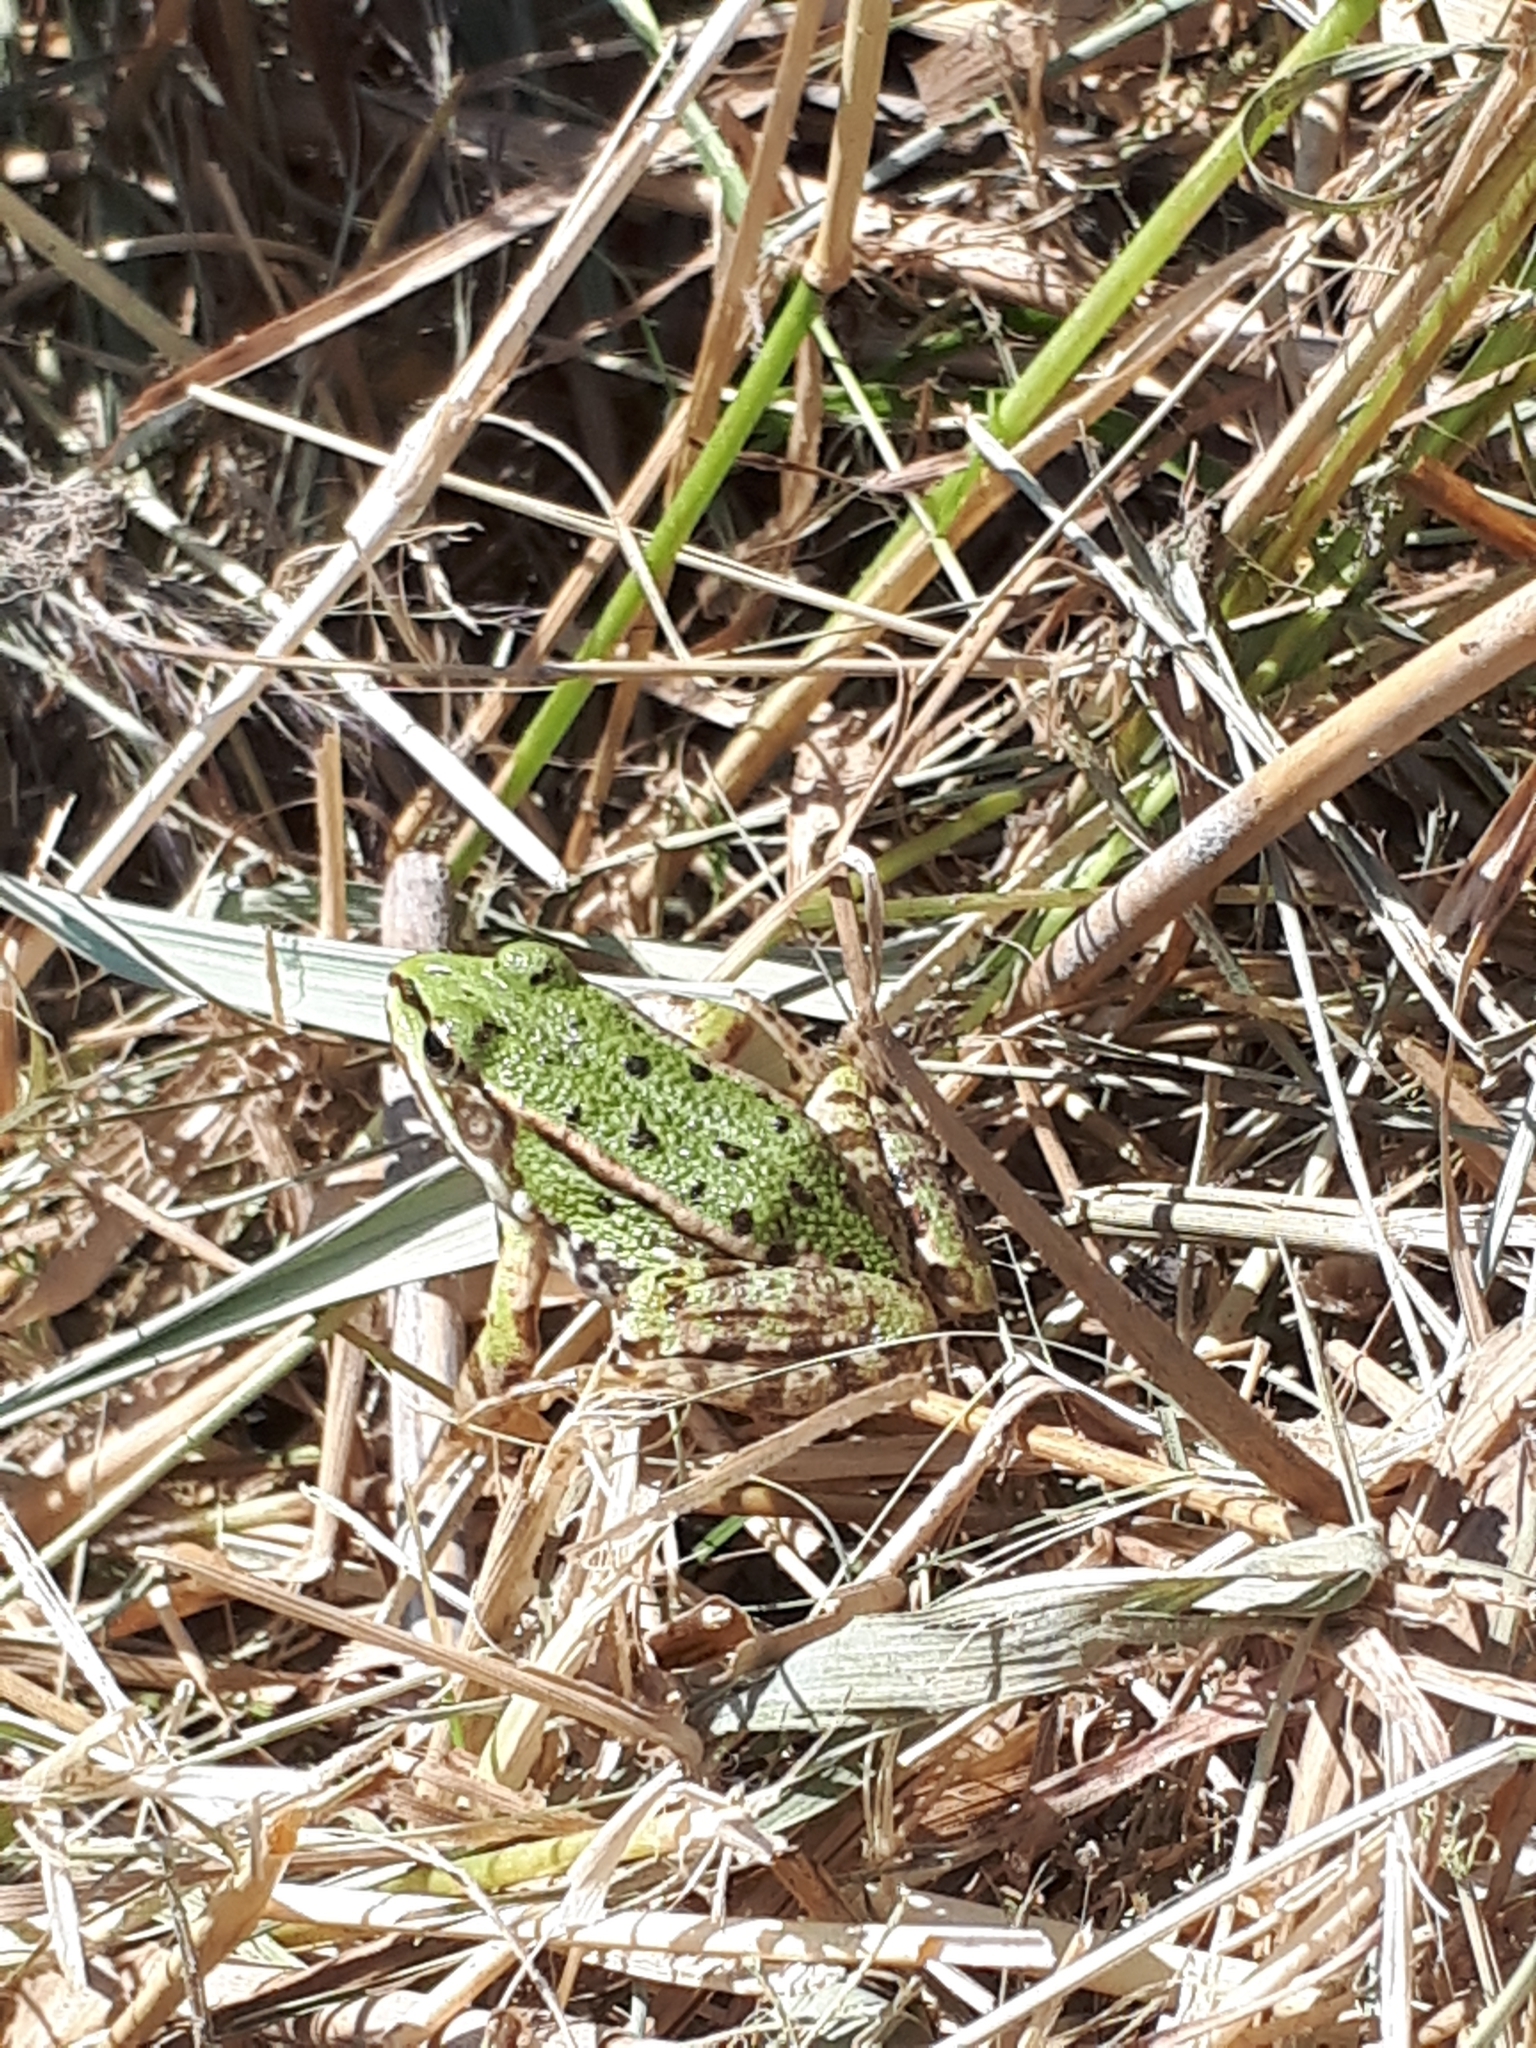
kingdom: Animalia
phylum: Chordata
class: Amphibia
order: Anura
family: Ranidae
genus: Pelophylax
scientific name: Pelophylax
